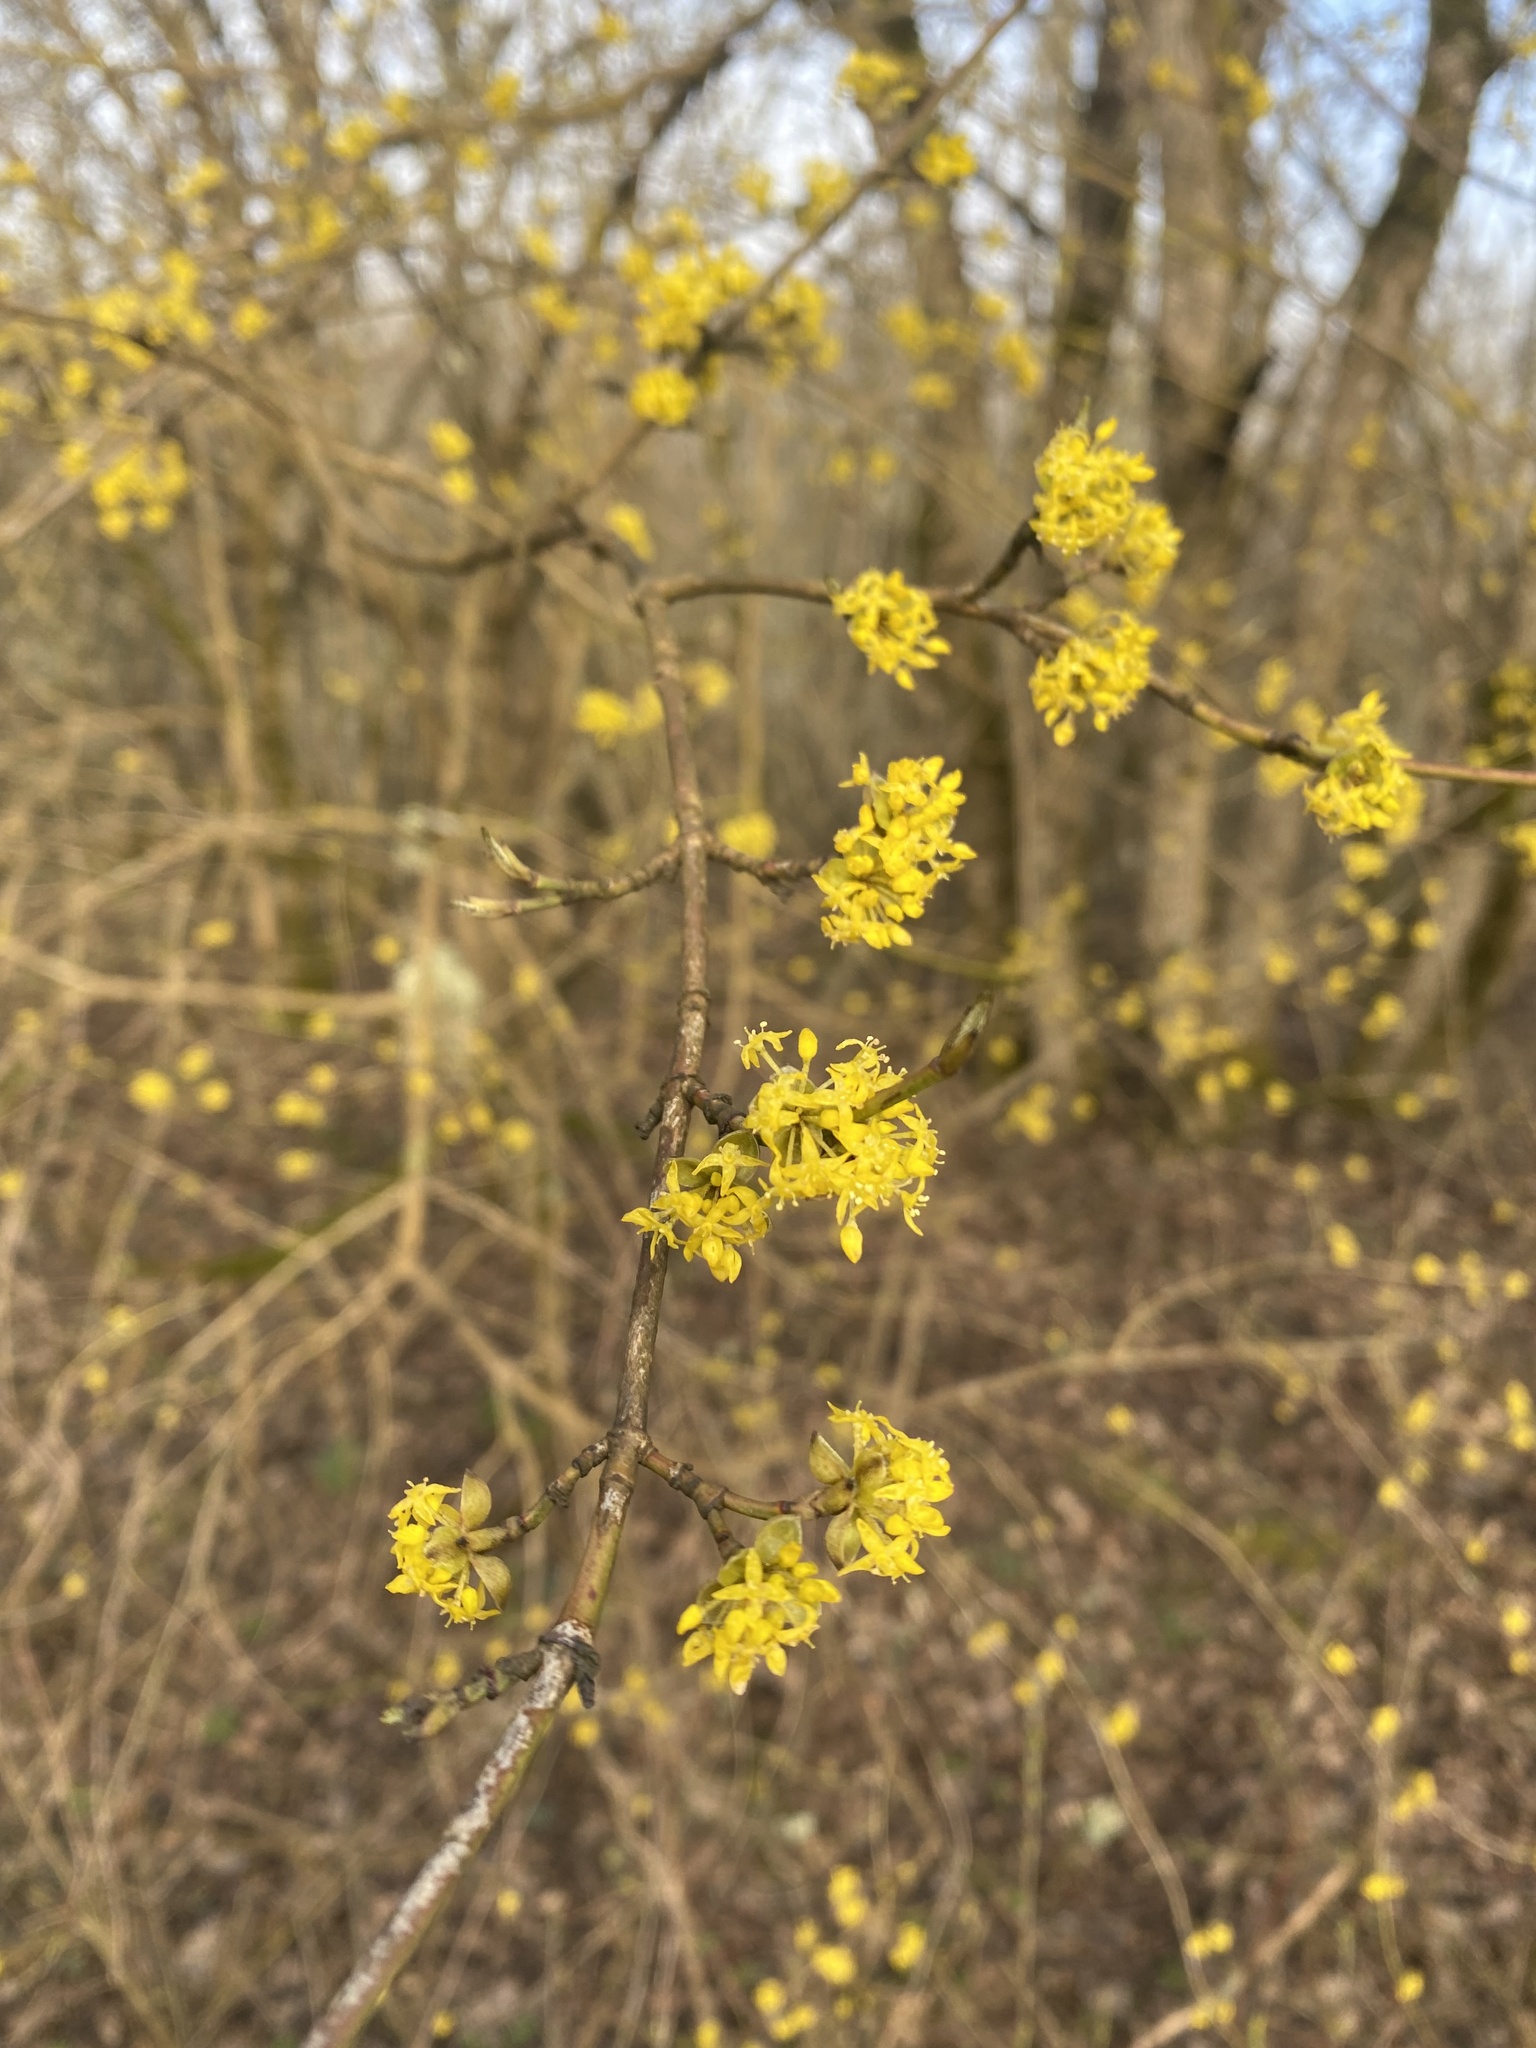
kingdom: Plantae
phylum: Tracheophyta
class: Magnoliopsida
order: Cornales
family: Cornaceae
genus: Cornus
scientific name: Cornus mas
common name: Cornelian-cherry
